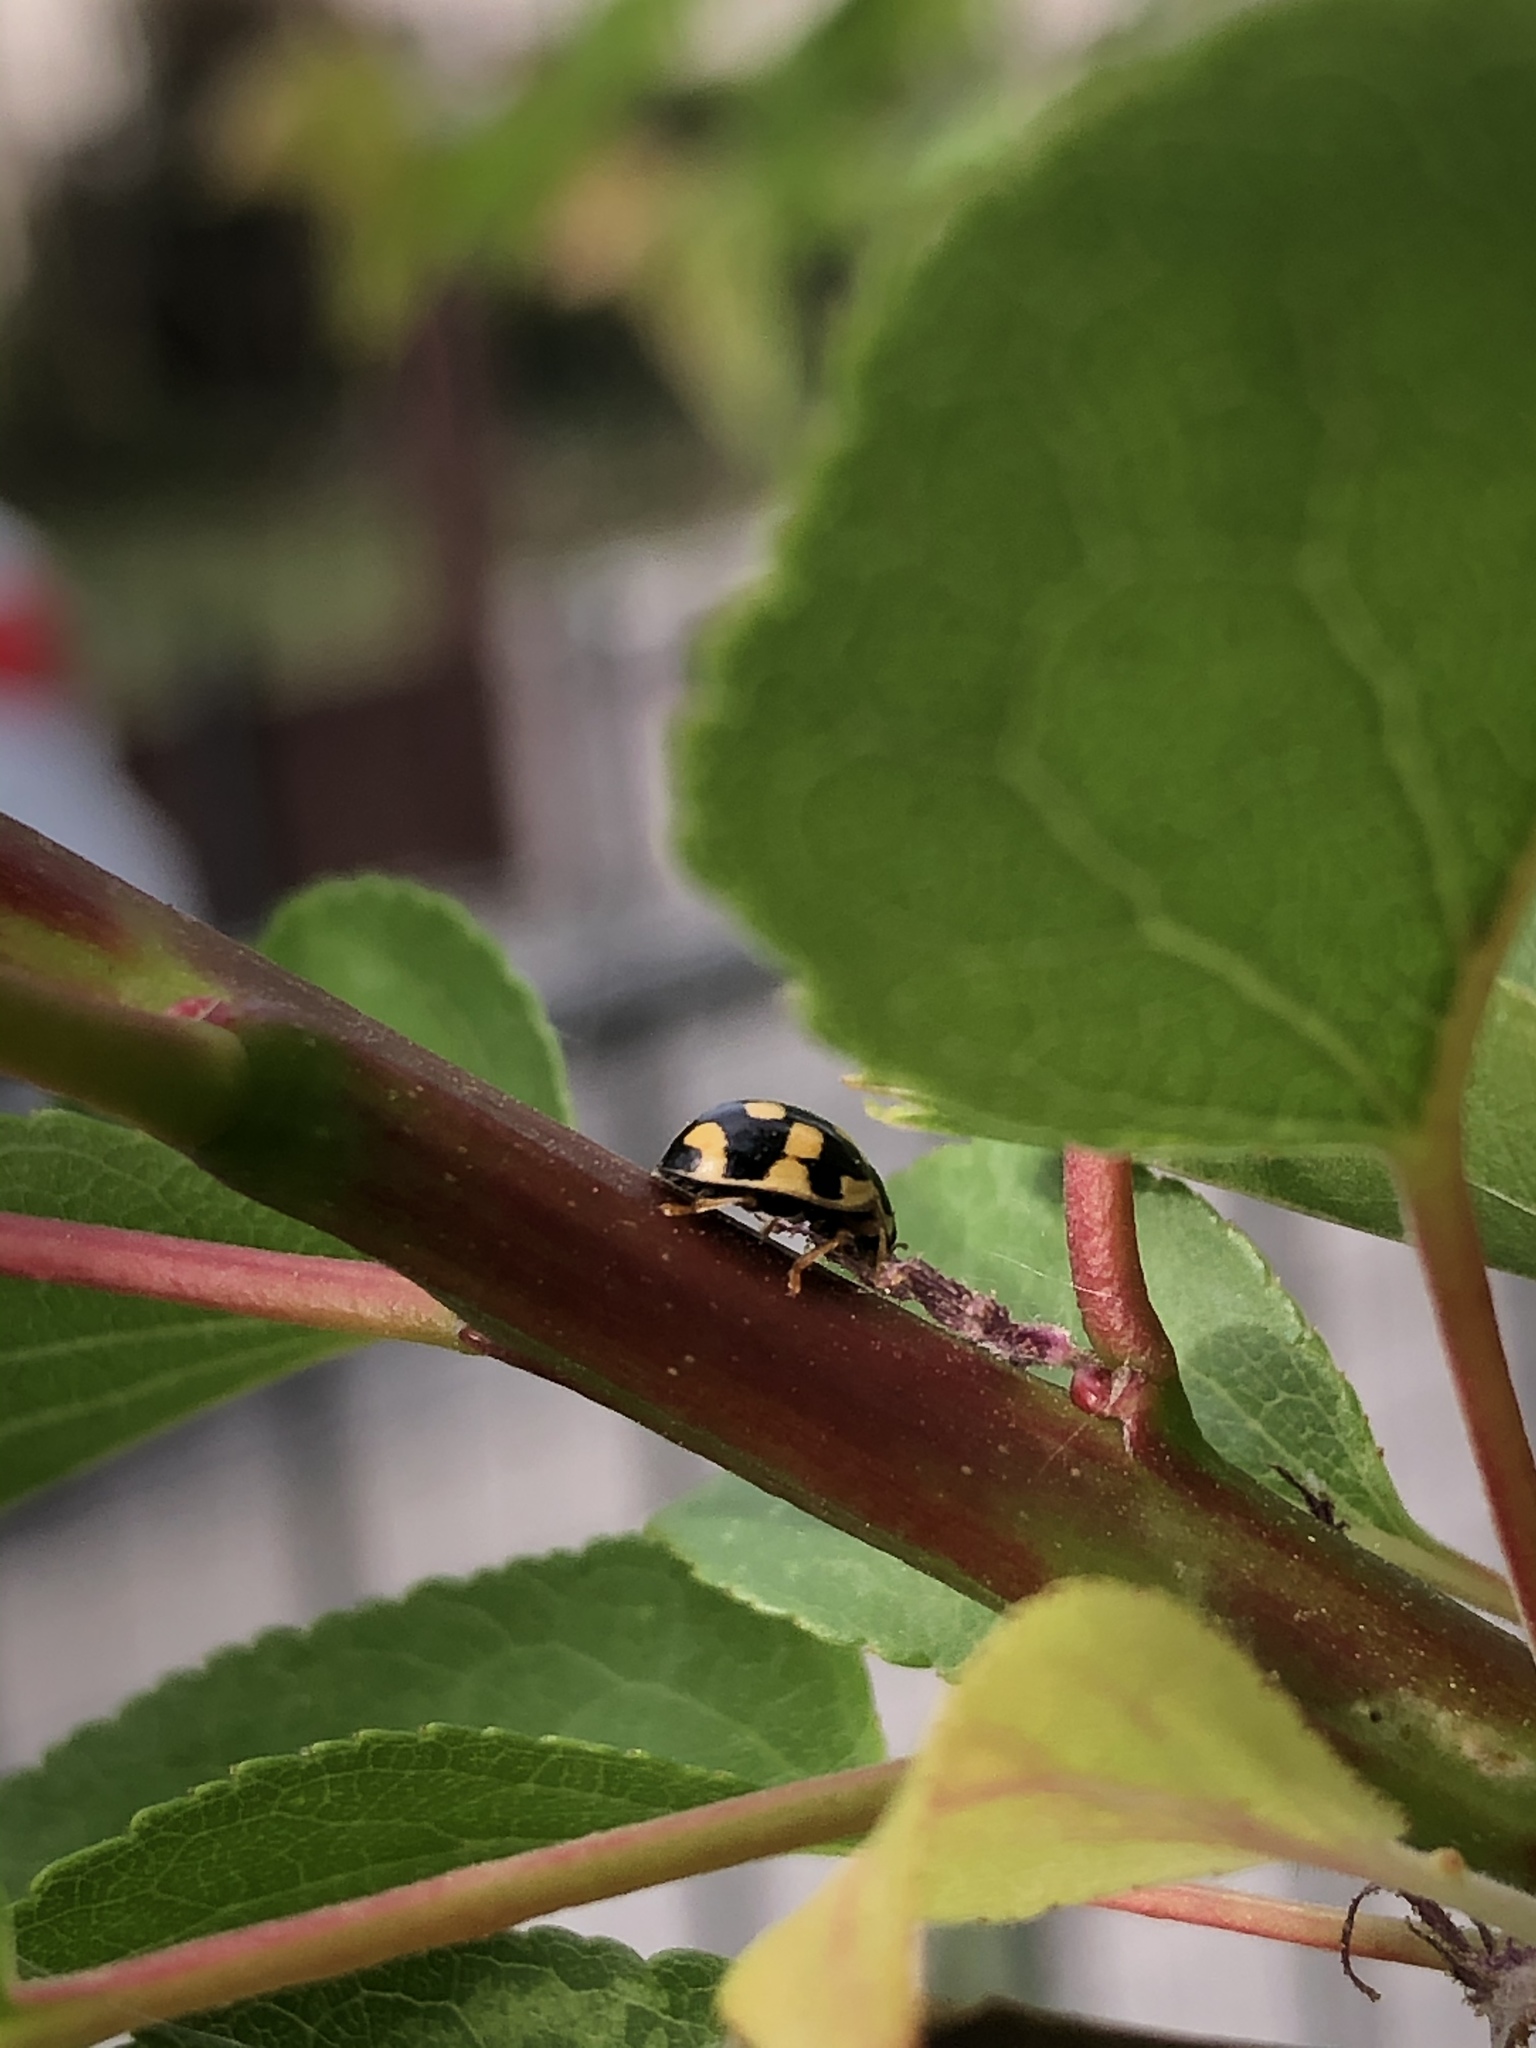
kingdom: Animalia
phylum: Arthropoda
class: Insecta
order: Coleoptera
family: Coccinellidae
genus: Propylaea
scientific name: Propylaea quatuordecimpunctata
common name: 14-spotted ladybird beetle
